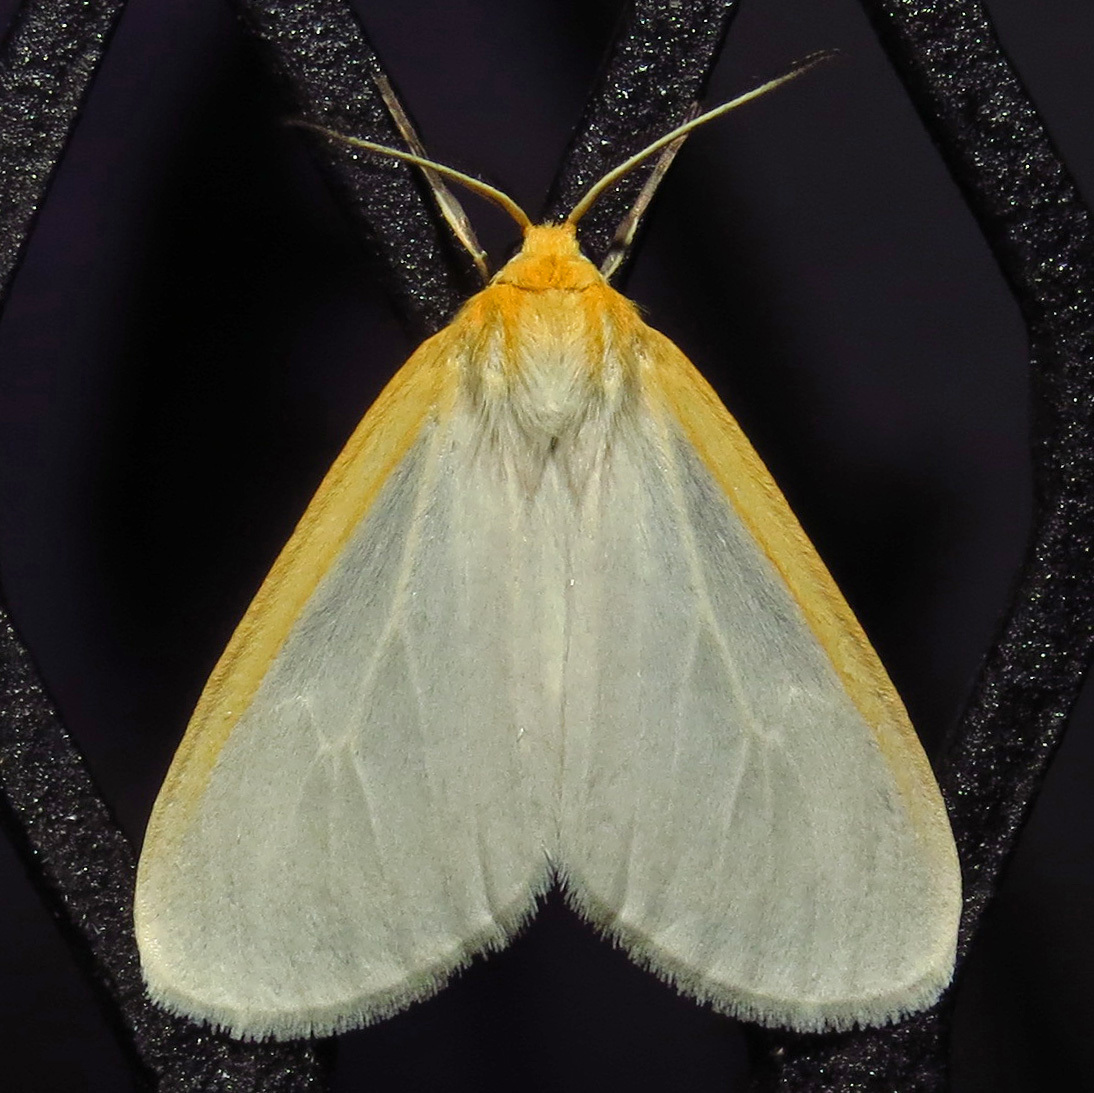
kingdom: Animalia
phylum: Arthropoda
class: Insecta
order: Lepidoptera
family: Erebidae
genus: Cycnia
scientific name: Cycnia tenera
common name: Delicate cycnia moth
